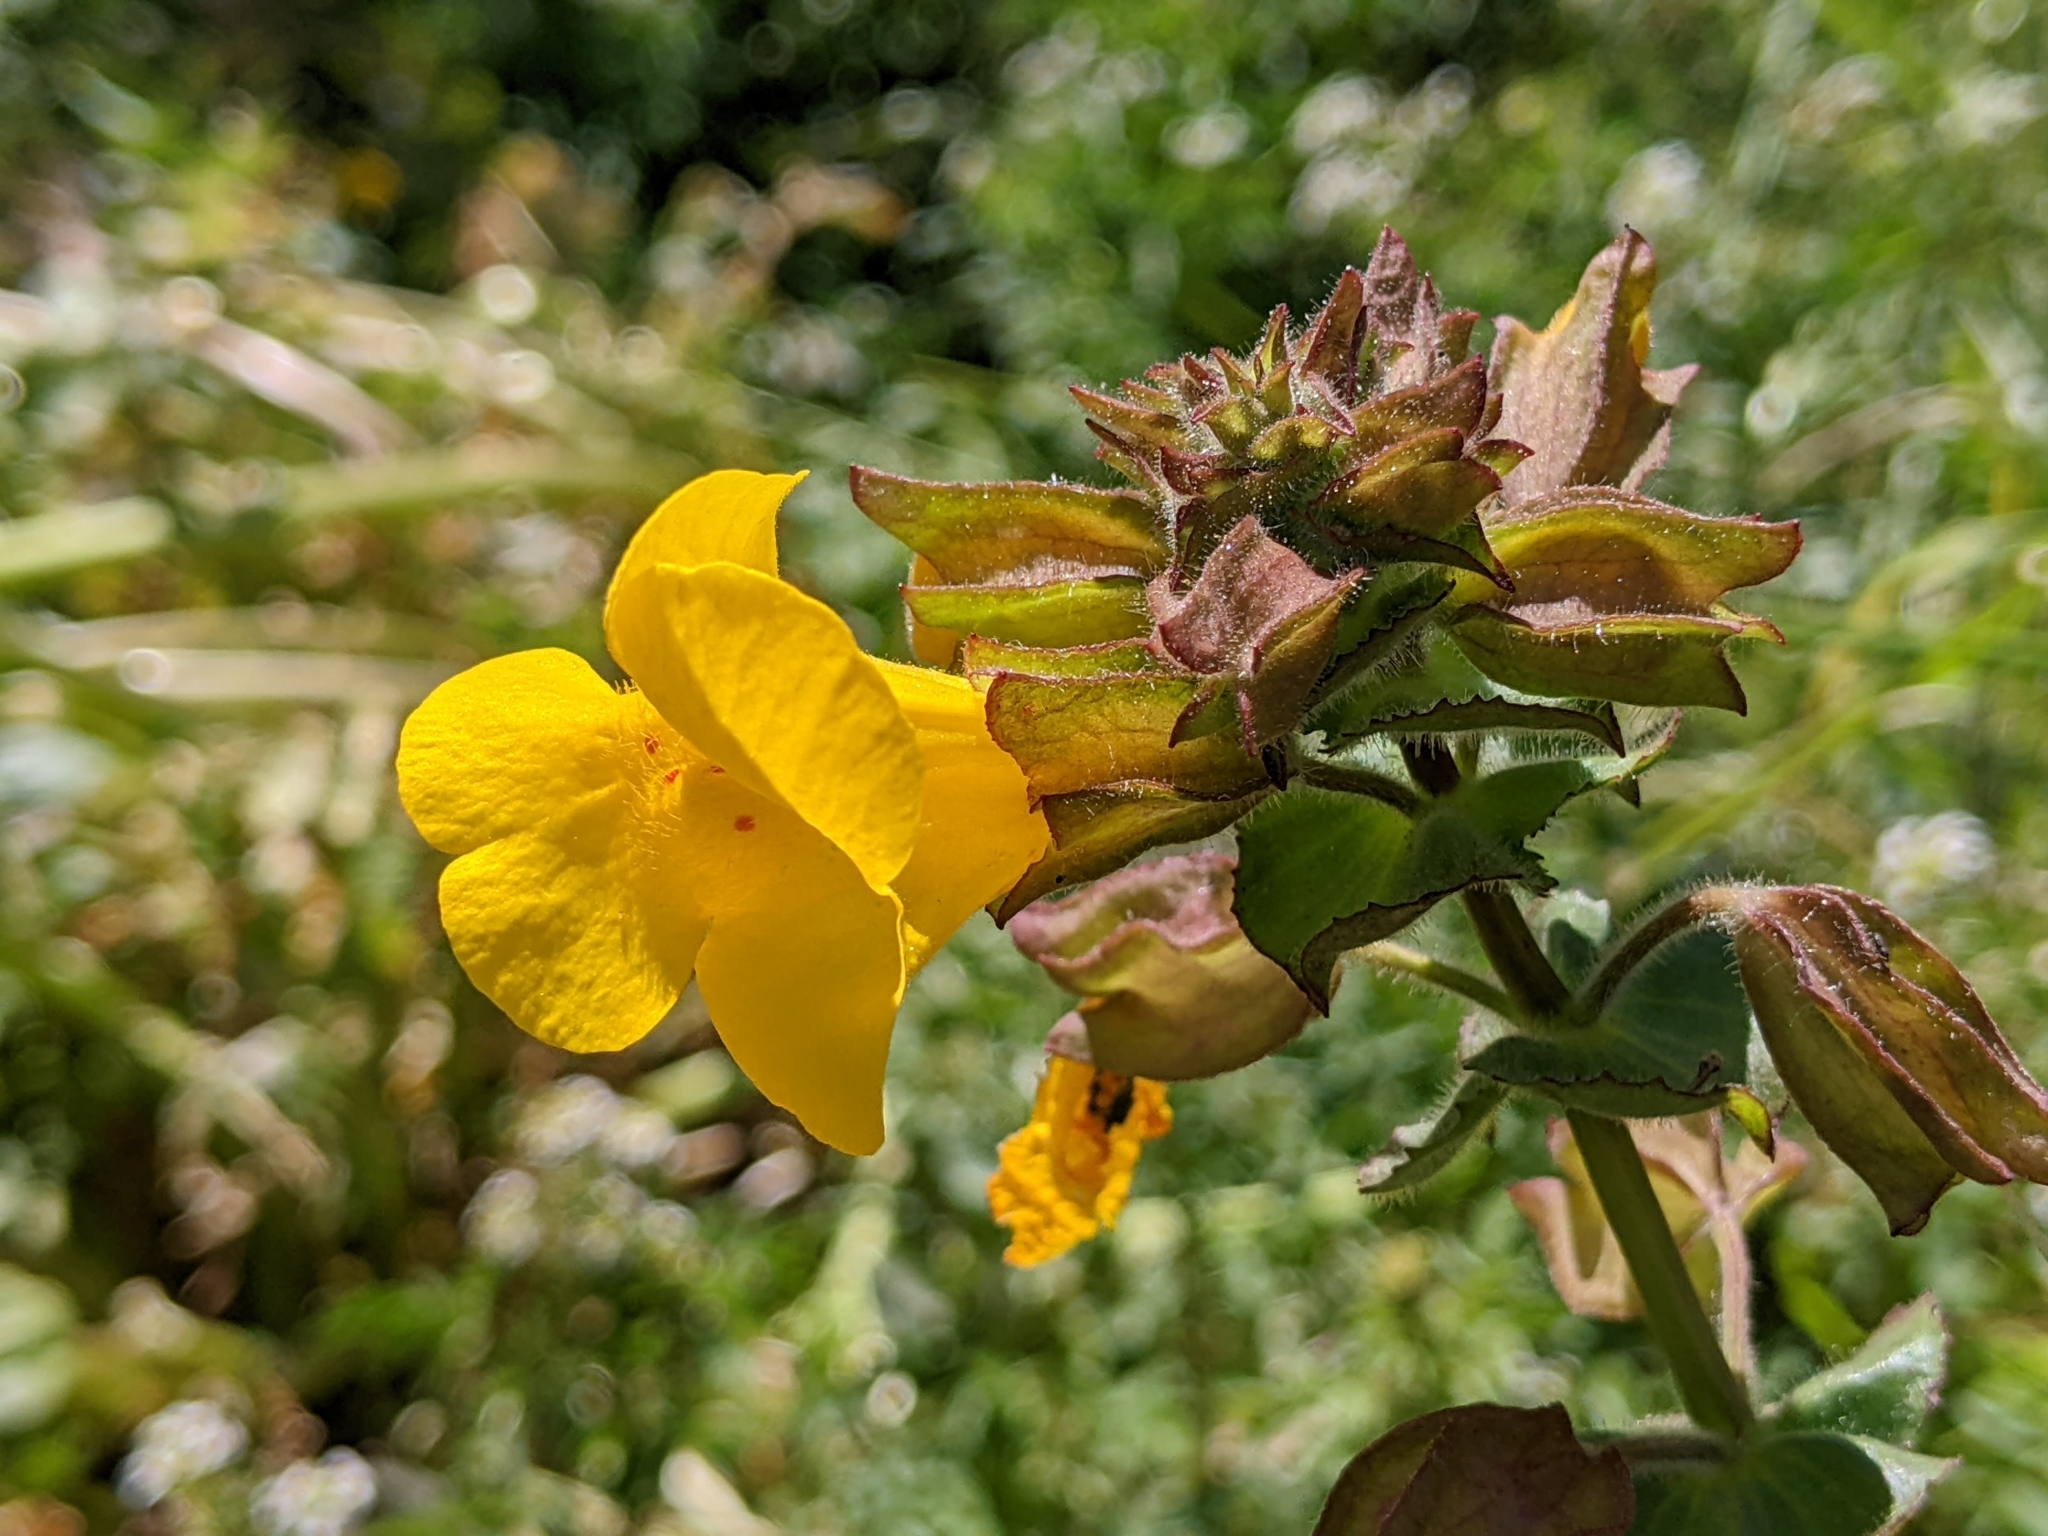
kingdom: Plantae
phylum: Tracheophyta
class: Magnoliopsida
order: Lamiales
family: Phrymaceae
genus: Erythranthe
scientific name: Erythranthe guttata
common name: Monkeyflower
